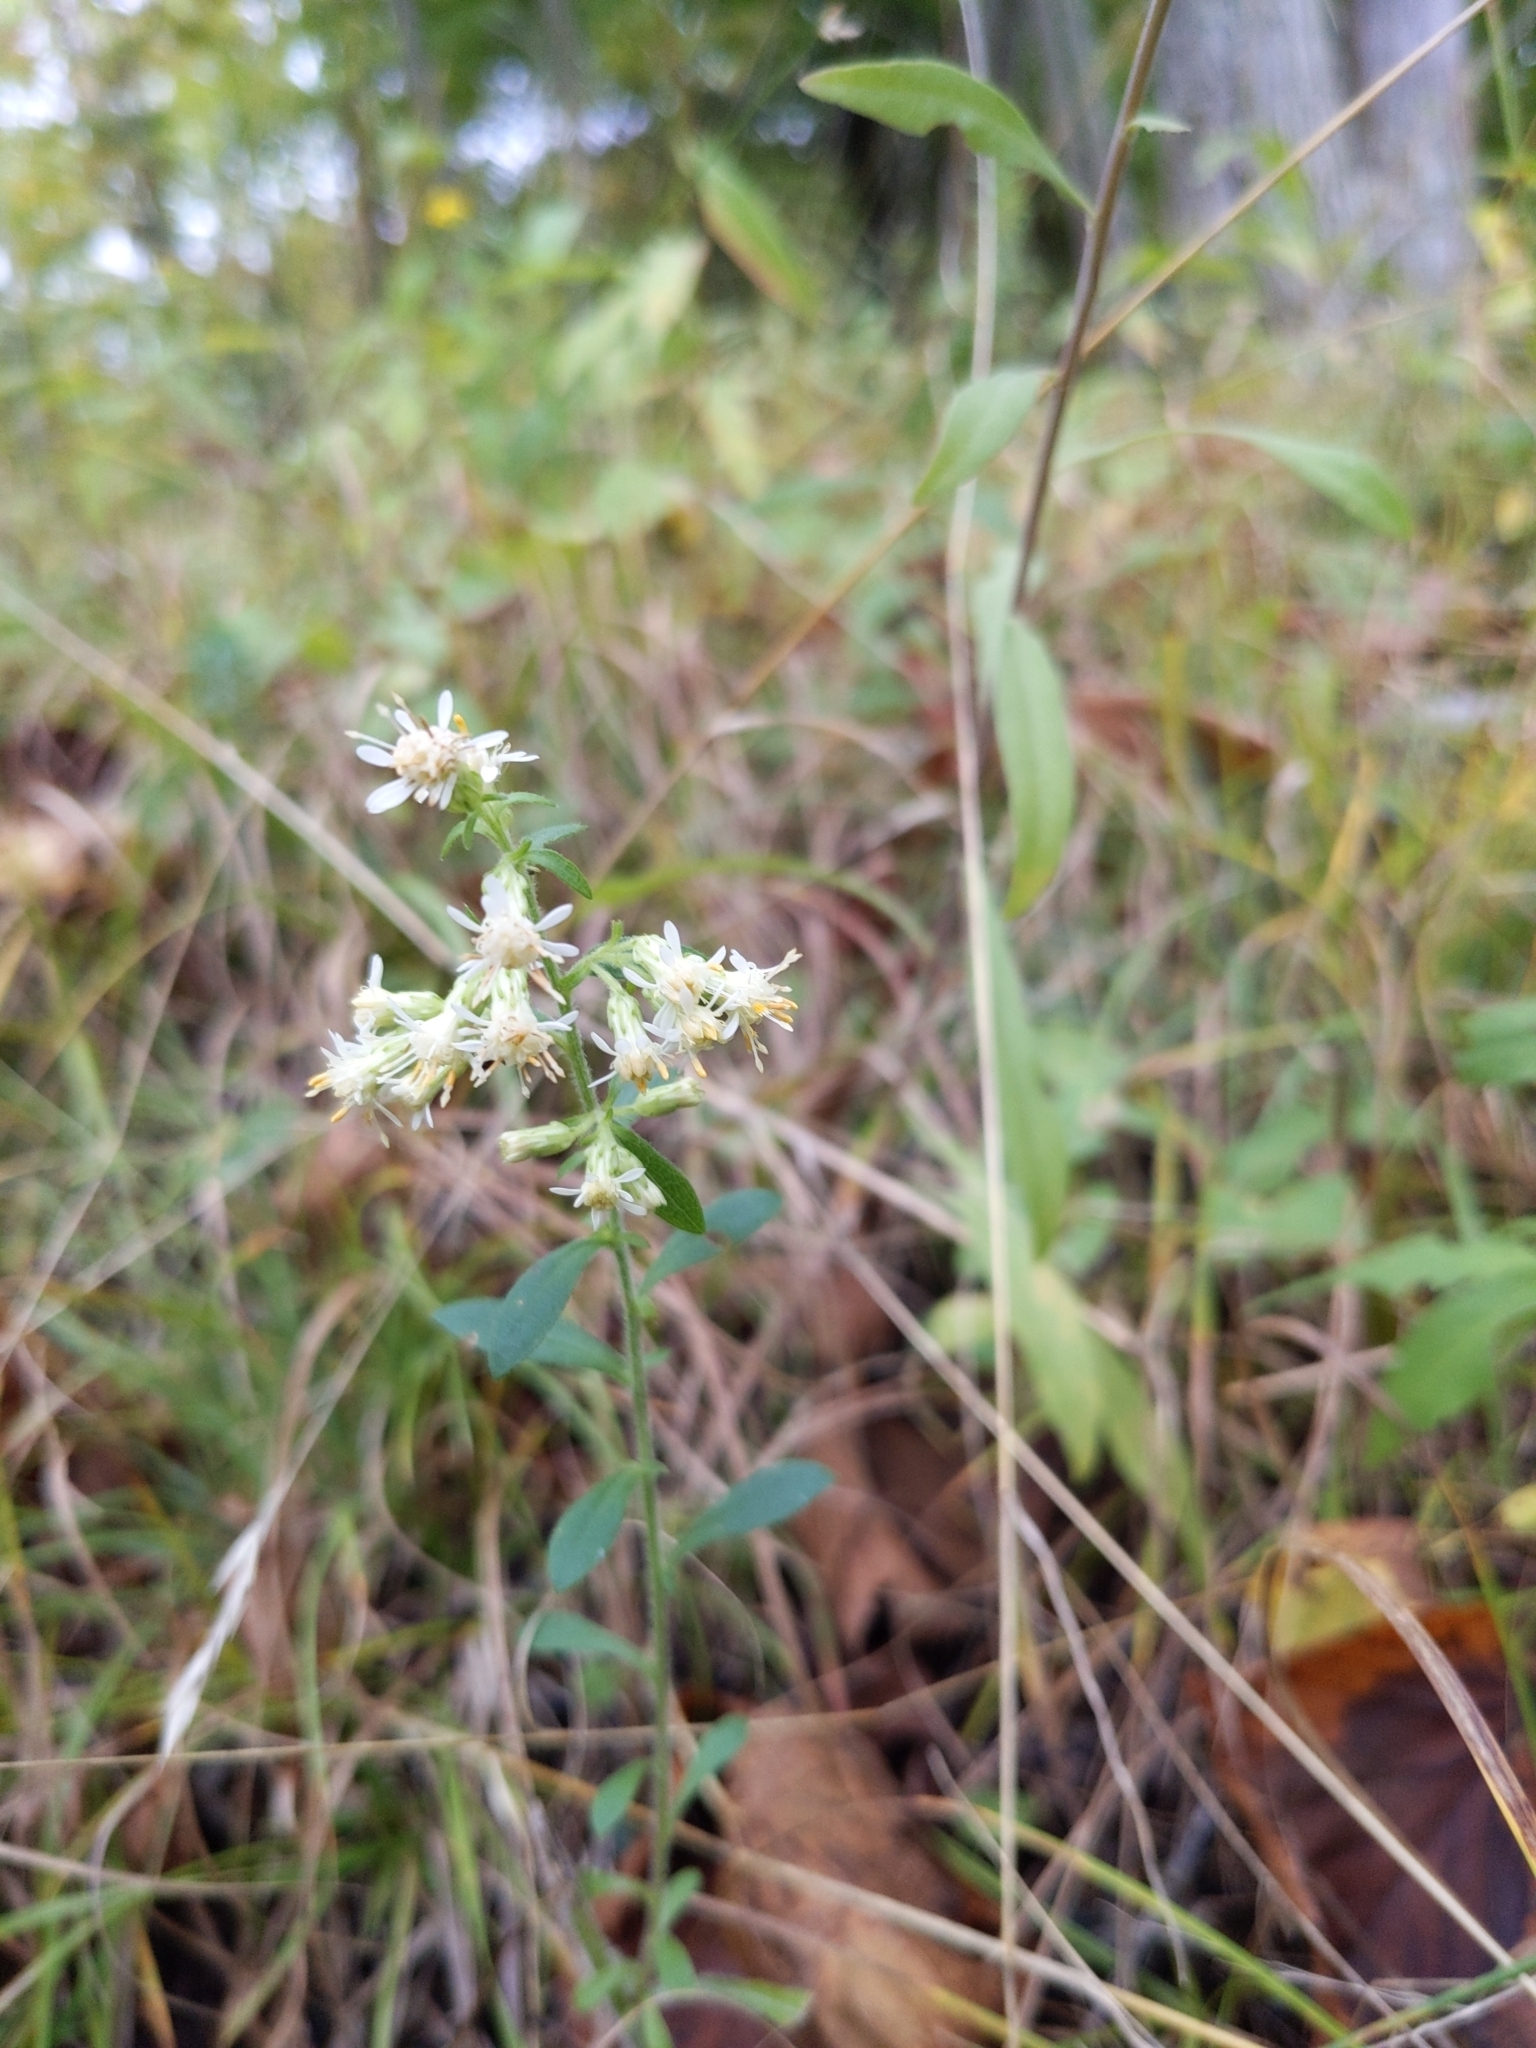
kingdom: Plantae
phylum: Tracheophyta
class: Magnoliopsida
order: Asterales
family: Asteraceae
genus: Solidago
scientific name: Solidago bicolor
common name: Silverrod
